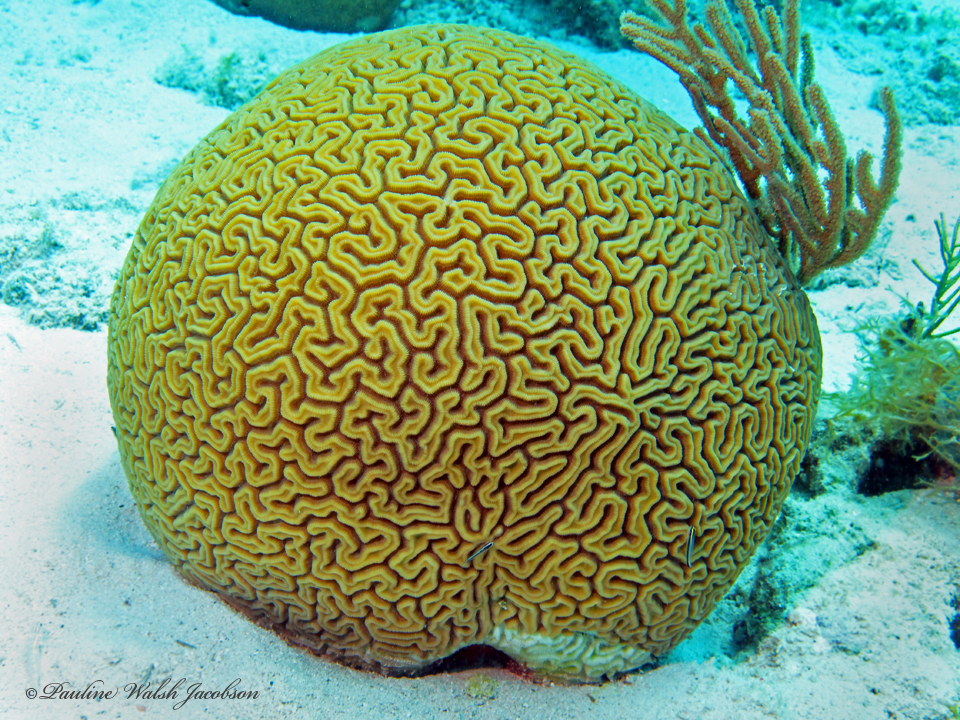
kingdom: Animalia
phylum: Cnidaria
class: Anthozoa
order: Scleractinia
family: Faviidae
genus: Diploria
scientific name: Diploria labyrinthiformis
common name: Grooved brain coral
